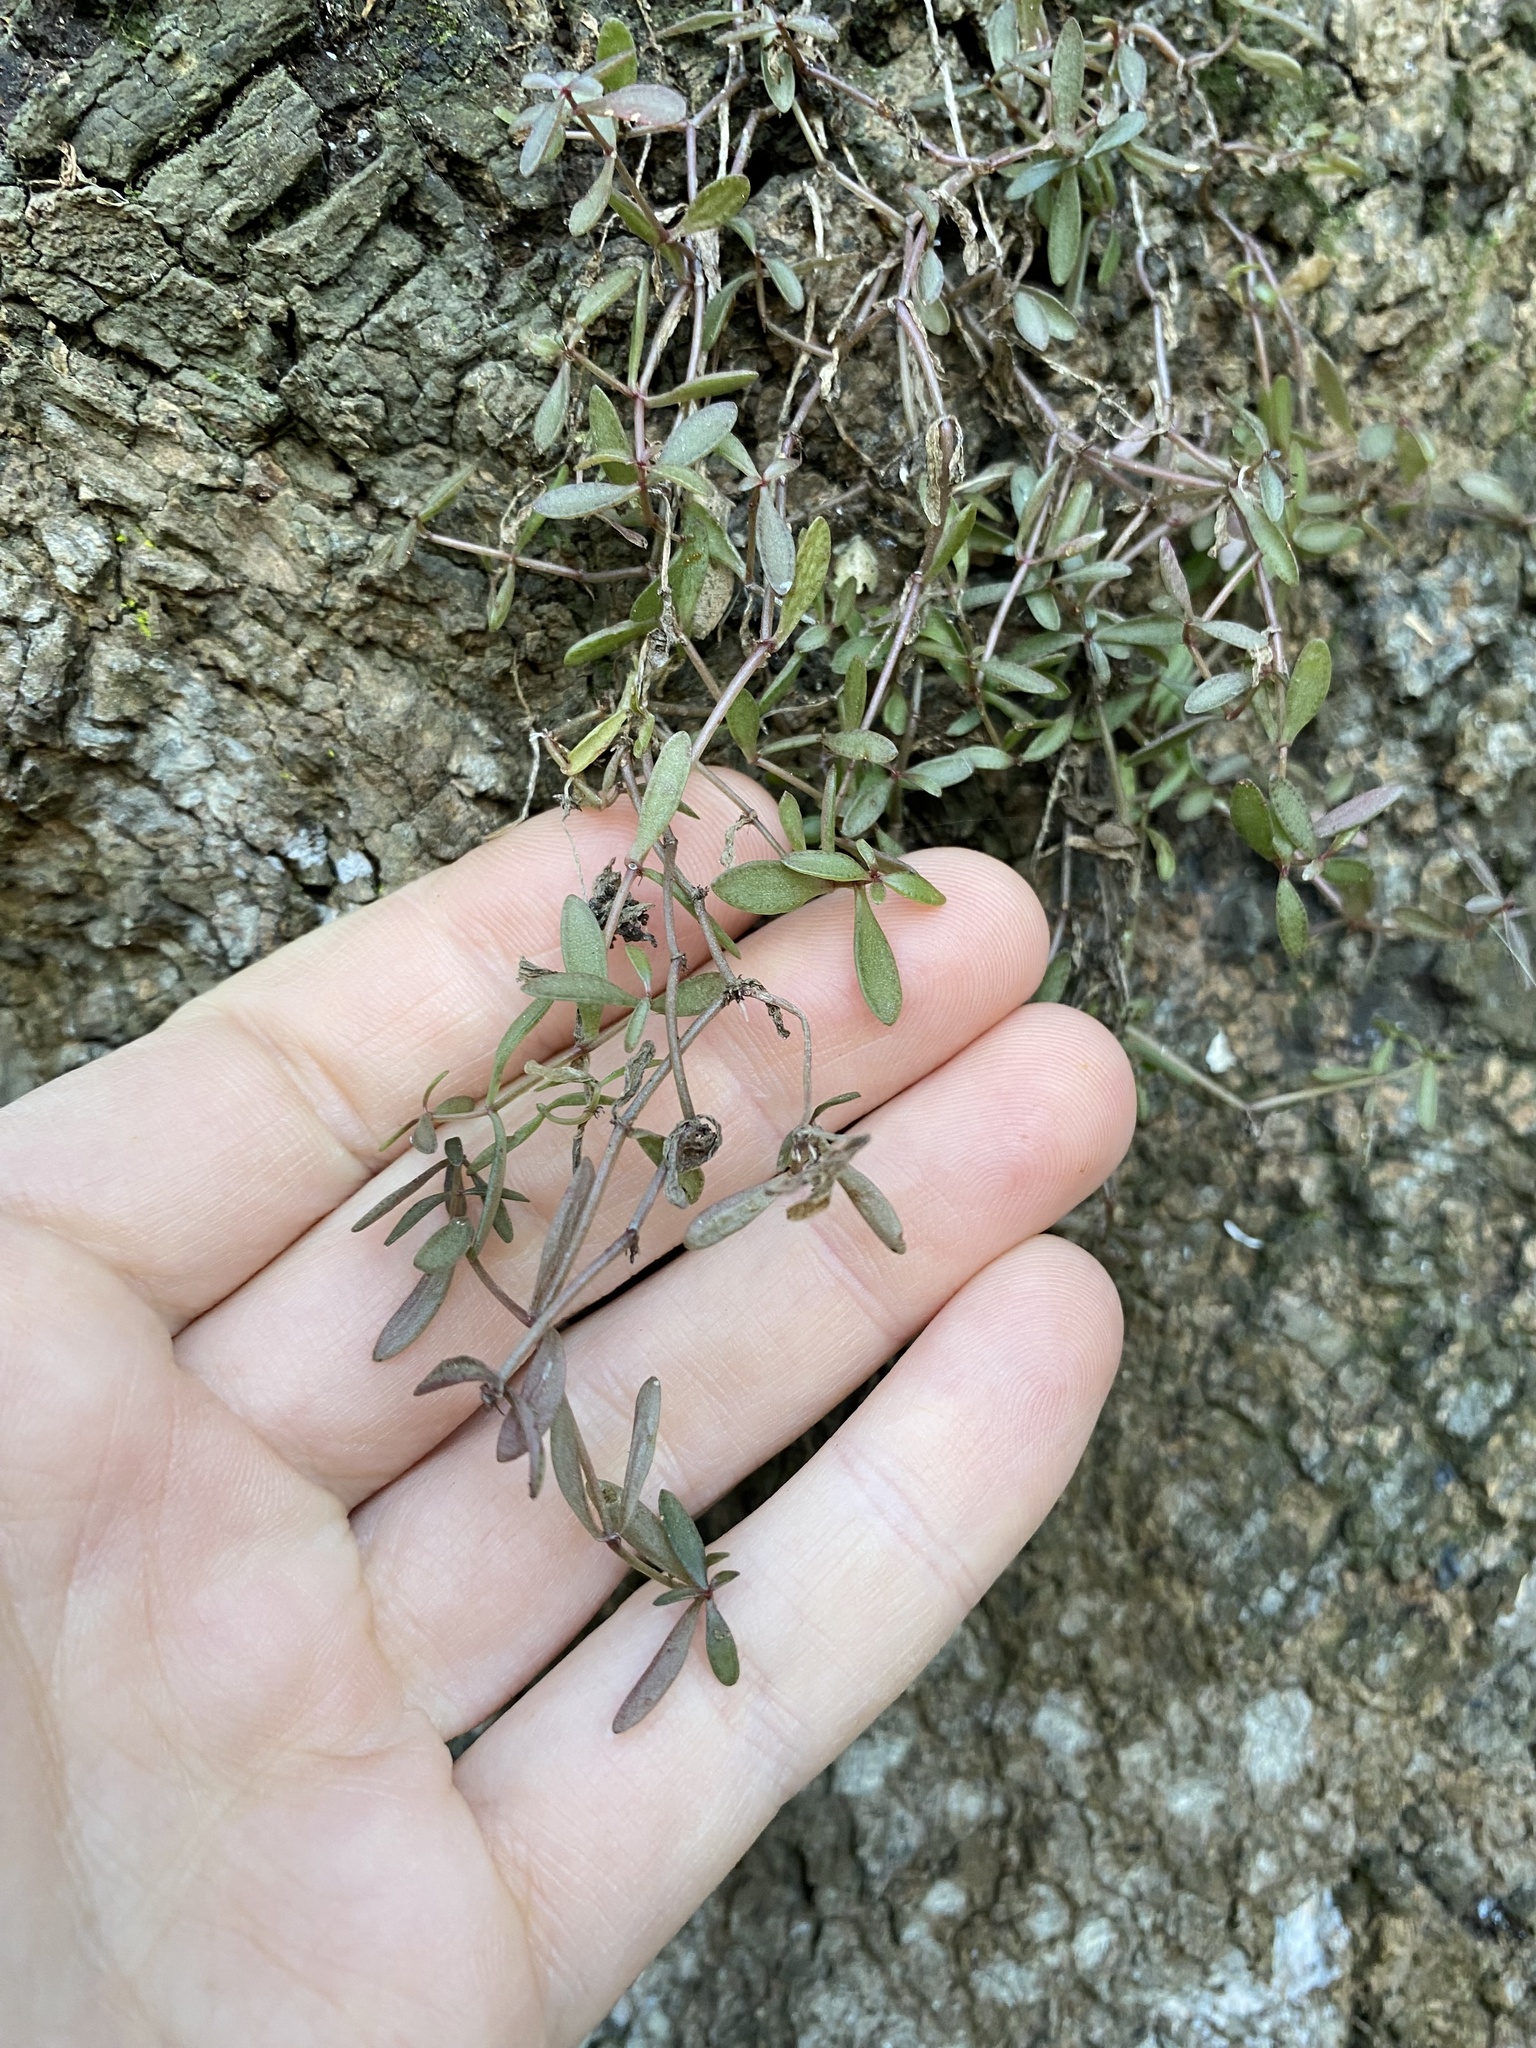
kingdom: Plantae
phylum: Tracheophyta
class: Magnoliopsida
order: Saxifragales
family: Crassulaceae
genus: Crassula
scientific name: Crassula expansa
